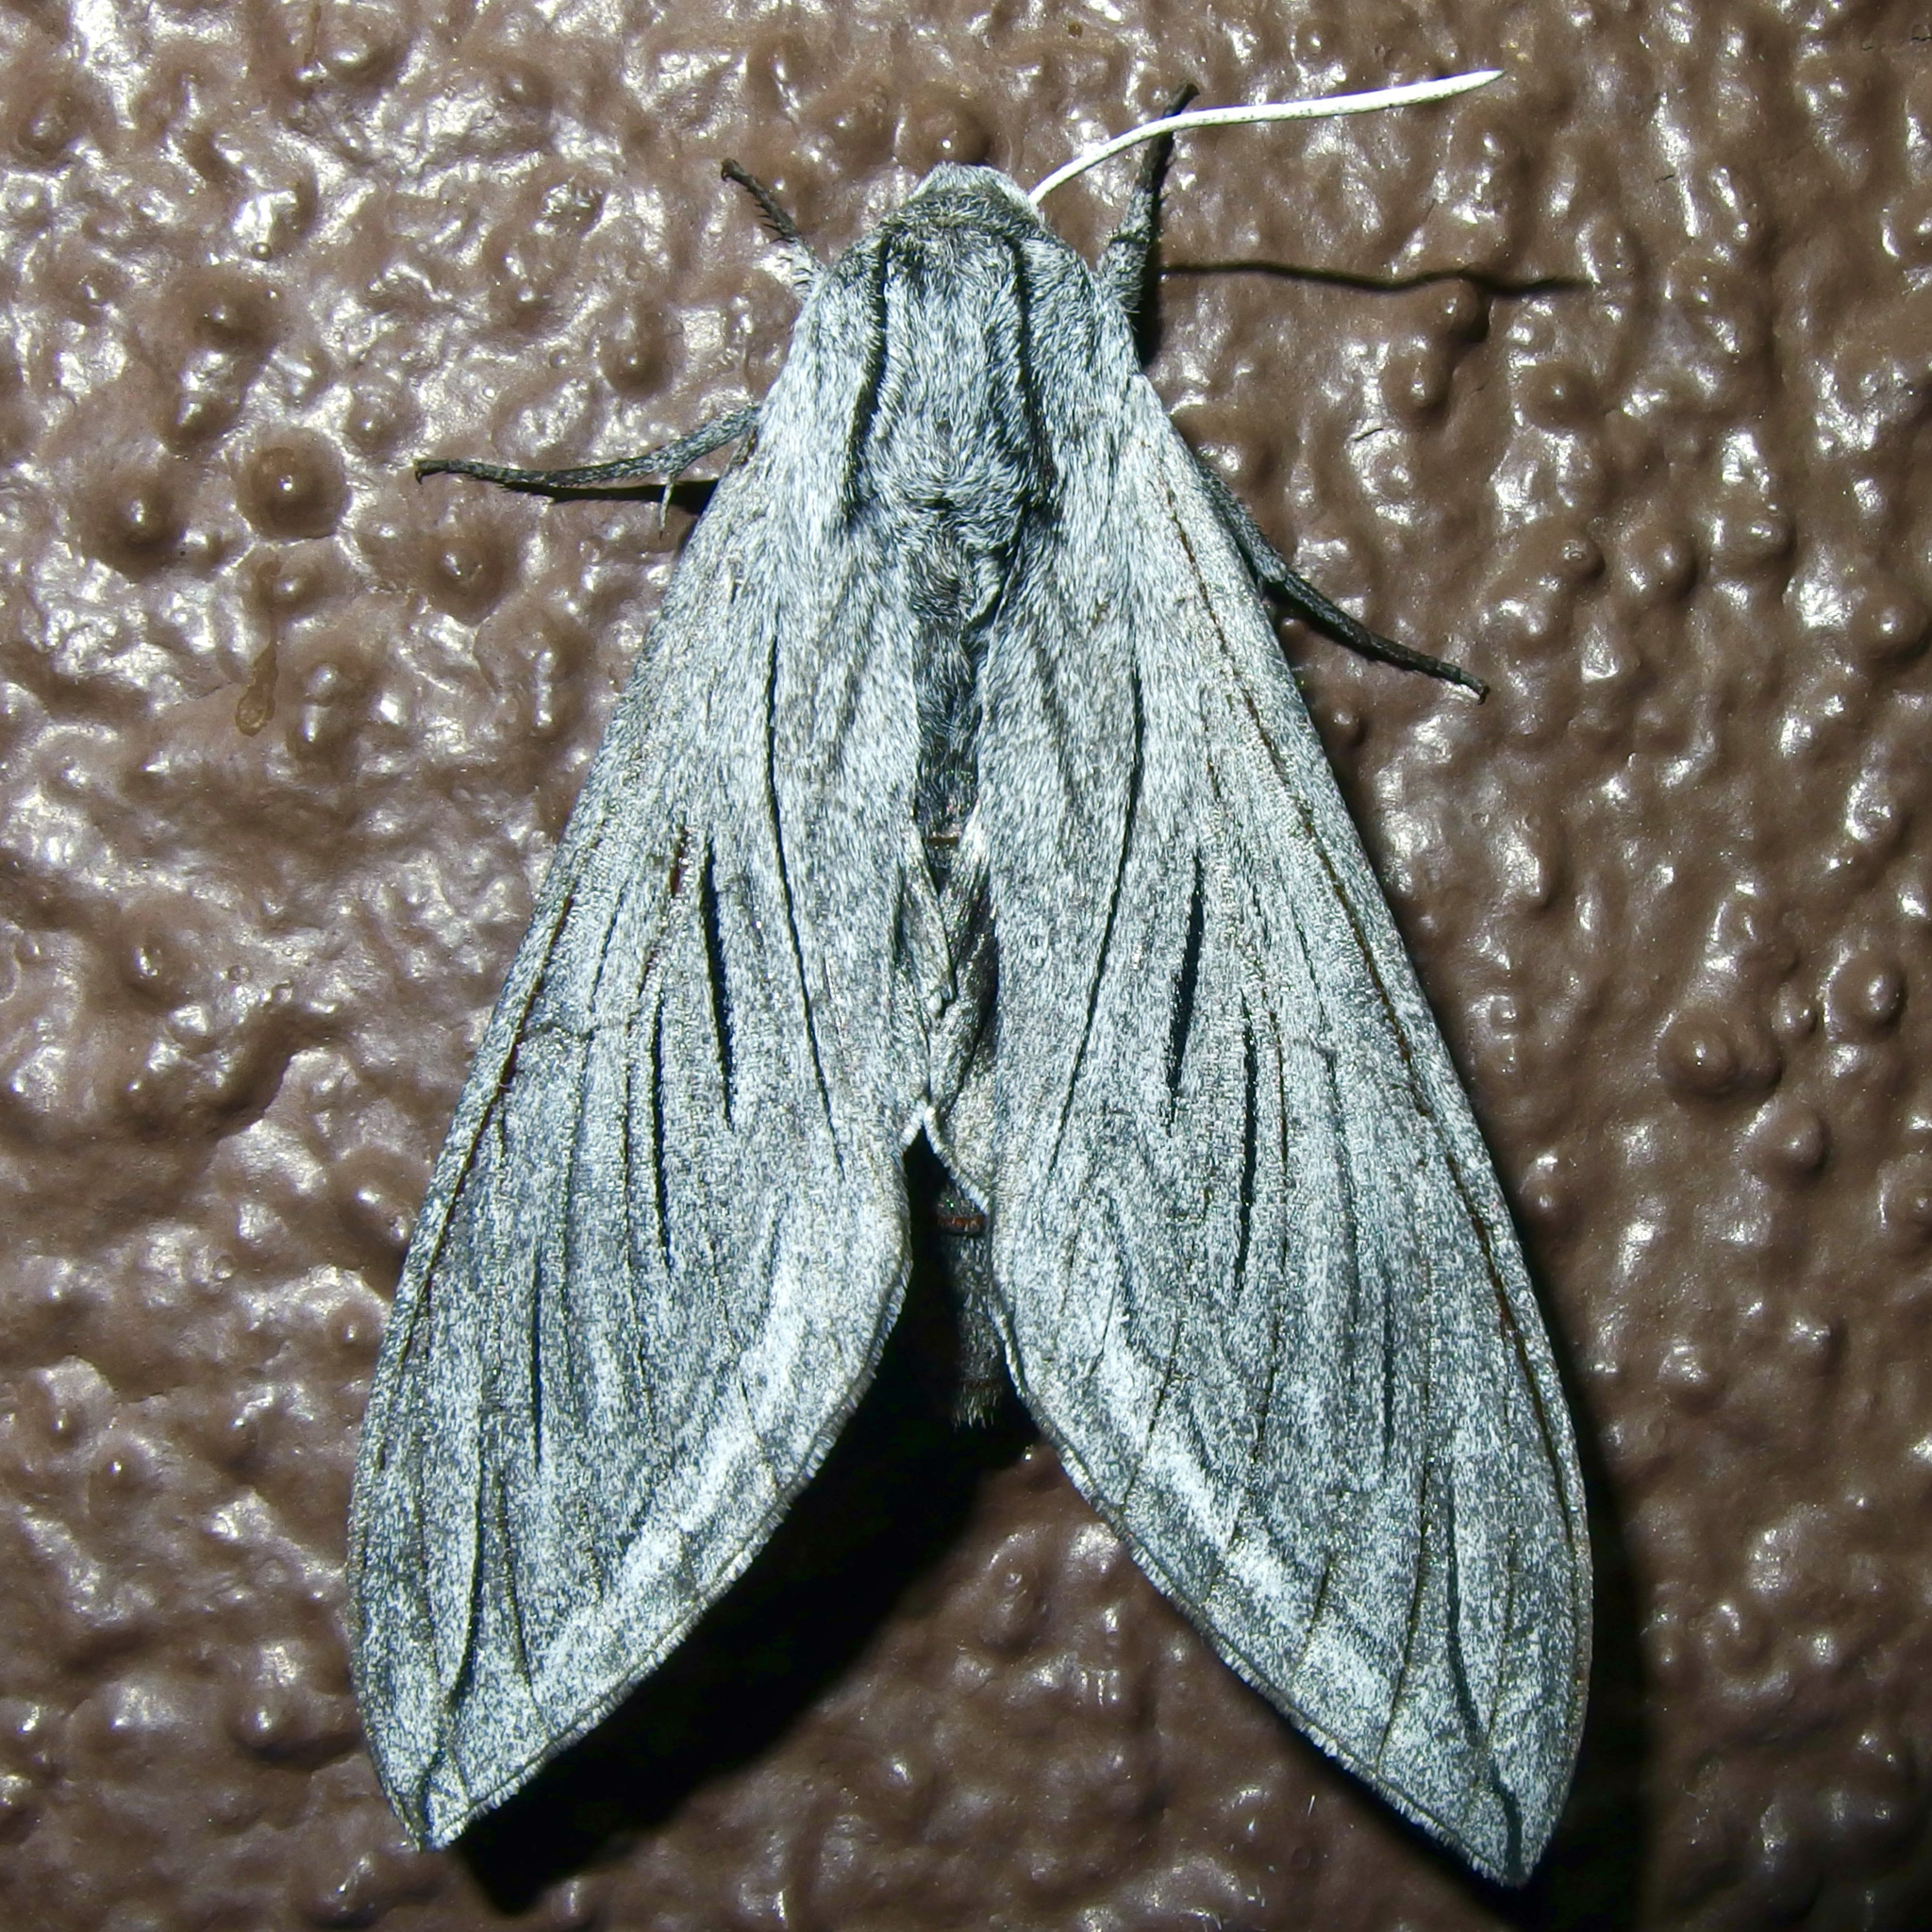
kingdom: Animalia
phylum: Arthropoda
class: Insecta
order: Lepidoptera
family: Sphingidae
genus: Sphinx
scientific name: Sphinx asellus
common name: Asella sphinx
